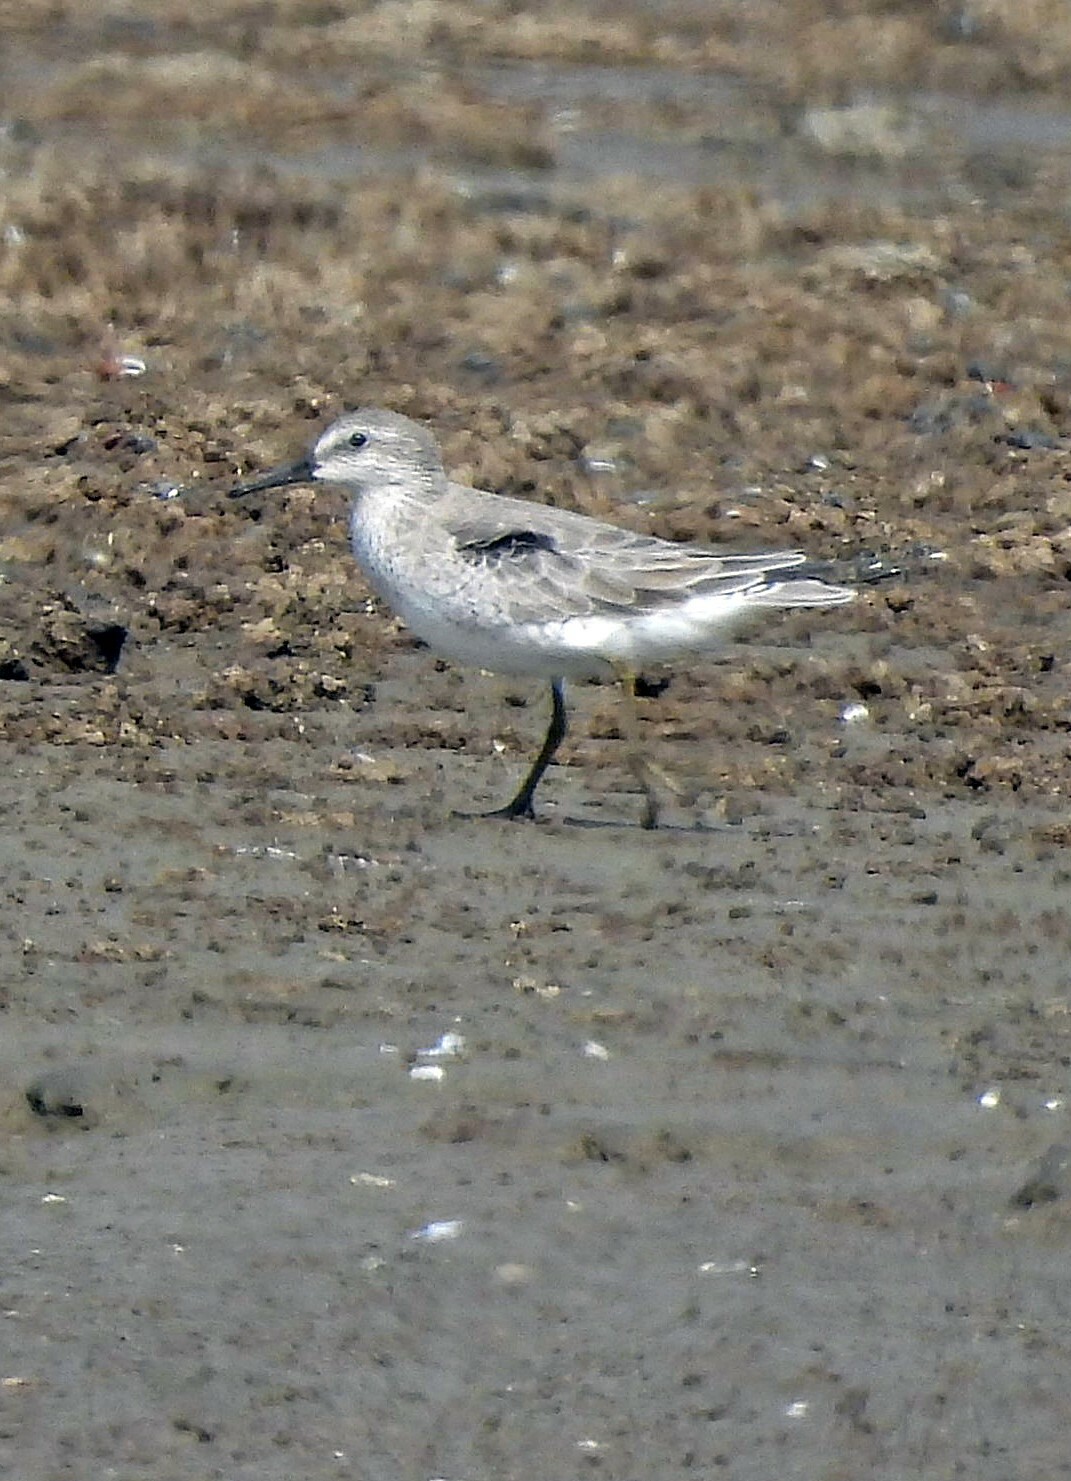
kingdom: Animalia
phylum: Chordata
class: Aves
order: Charadriiformes
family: Scolopacidae
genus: Calidris
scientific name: Calidris canutus
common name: Red knot
